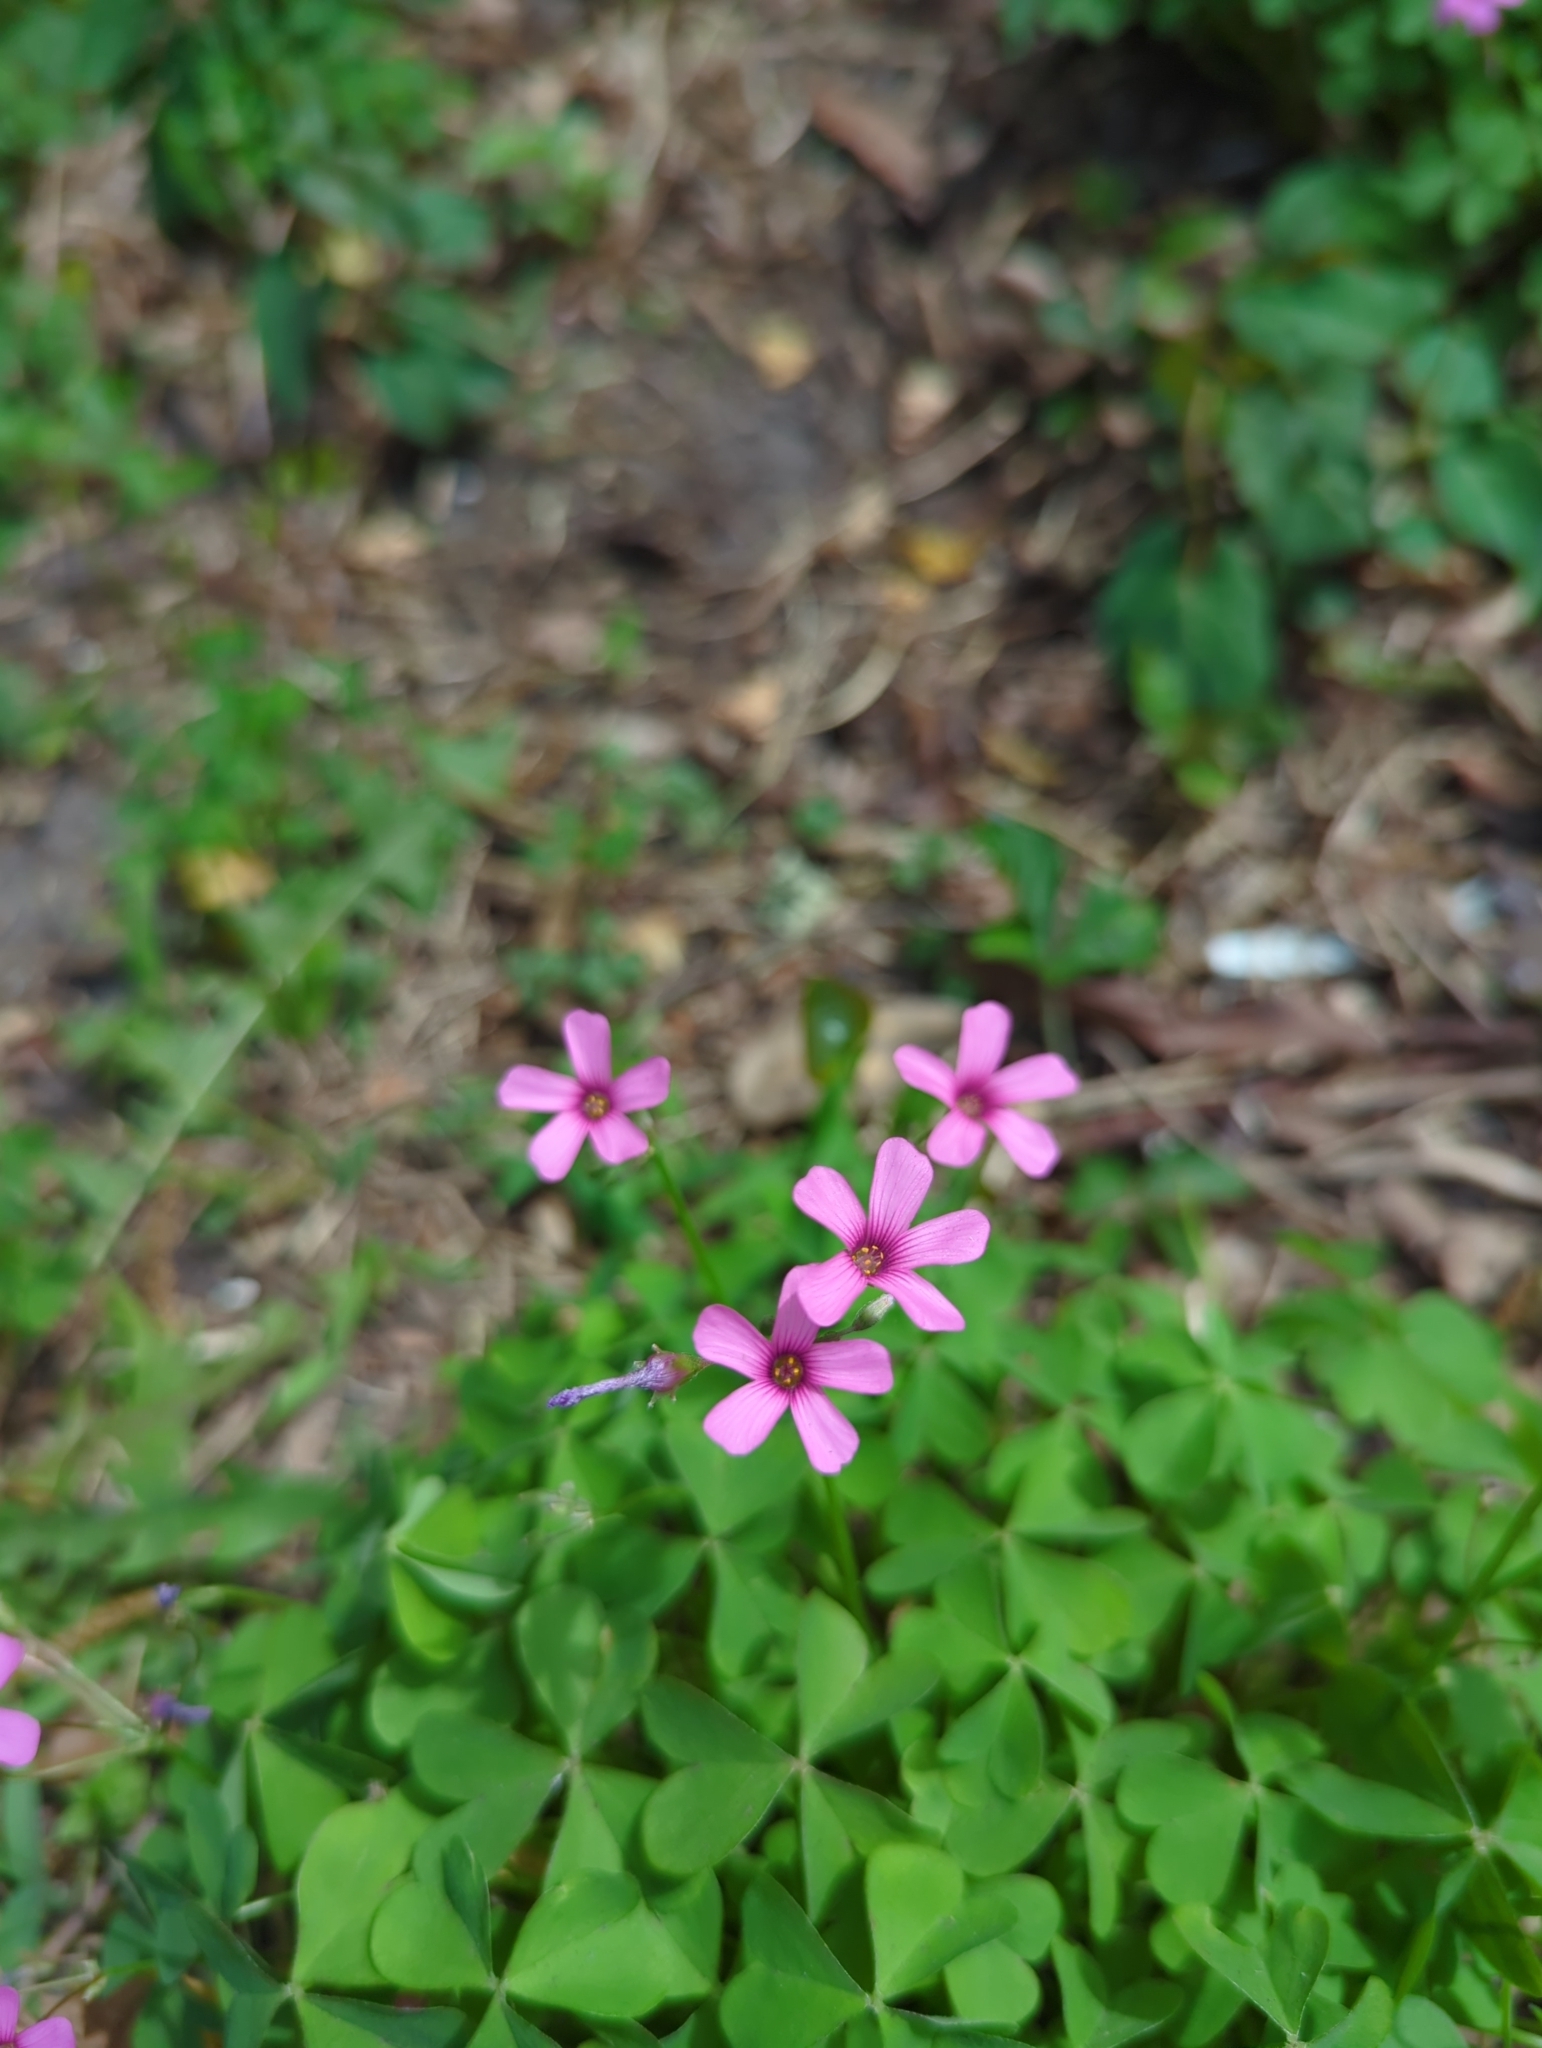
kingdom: Plantae
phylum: Tracheophyta
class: Magnoliopsida
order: Oxalidales
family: Oxalidaceae
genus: Oxalis
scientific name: Oxalis articulata
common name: Pink-sorrel
